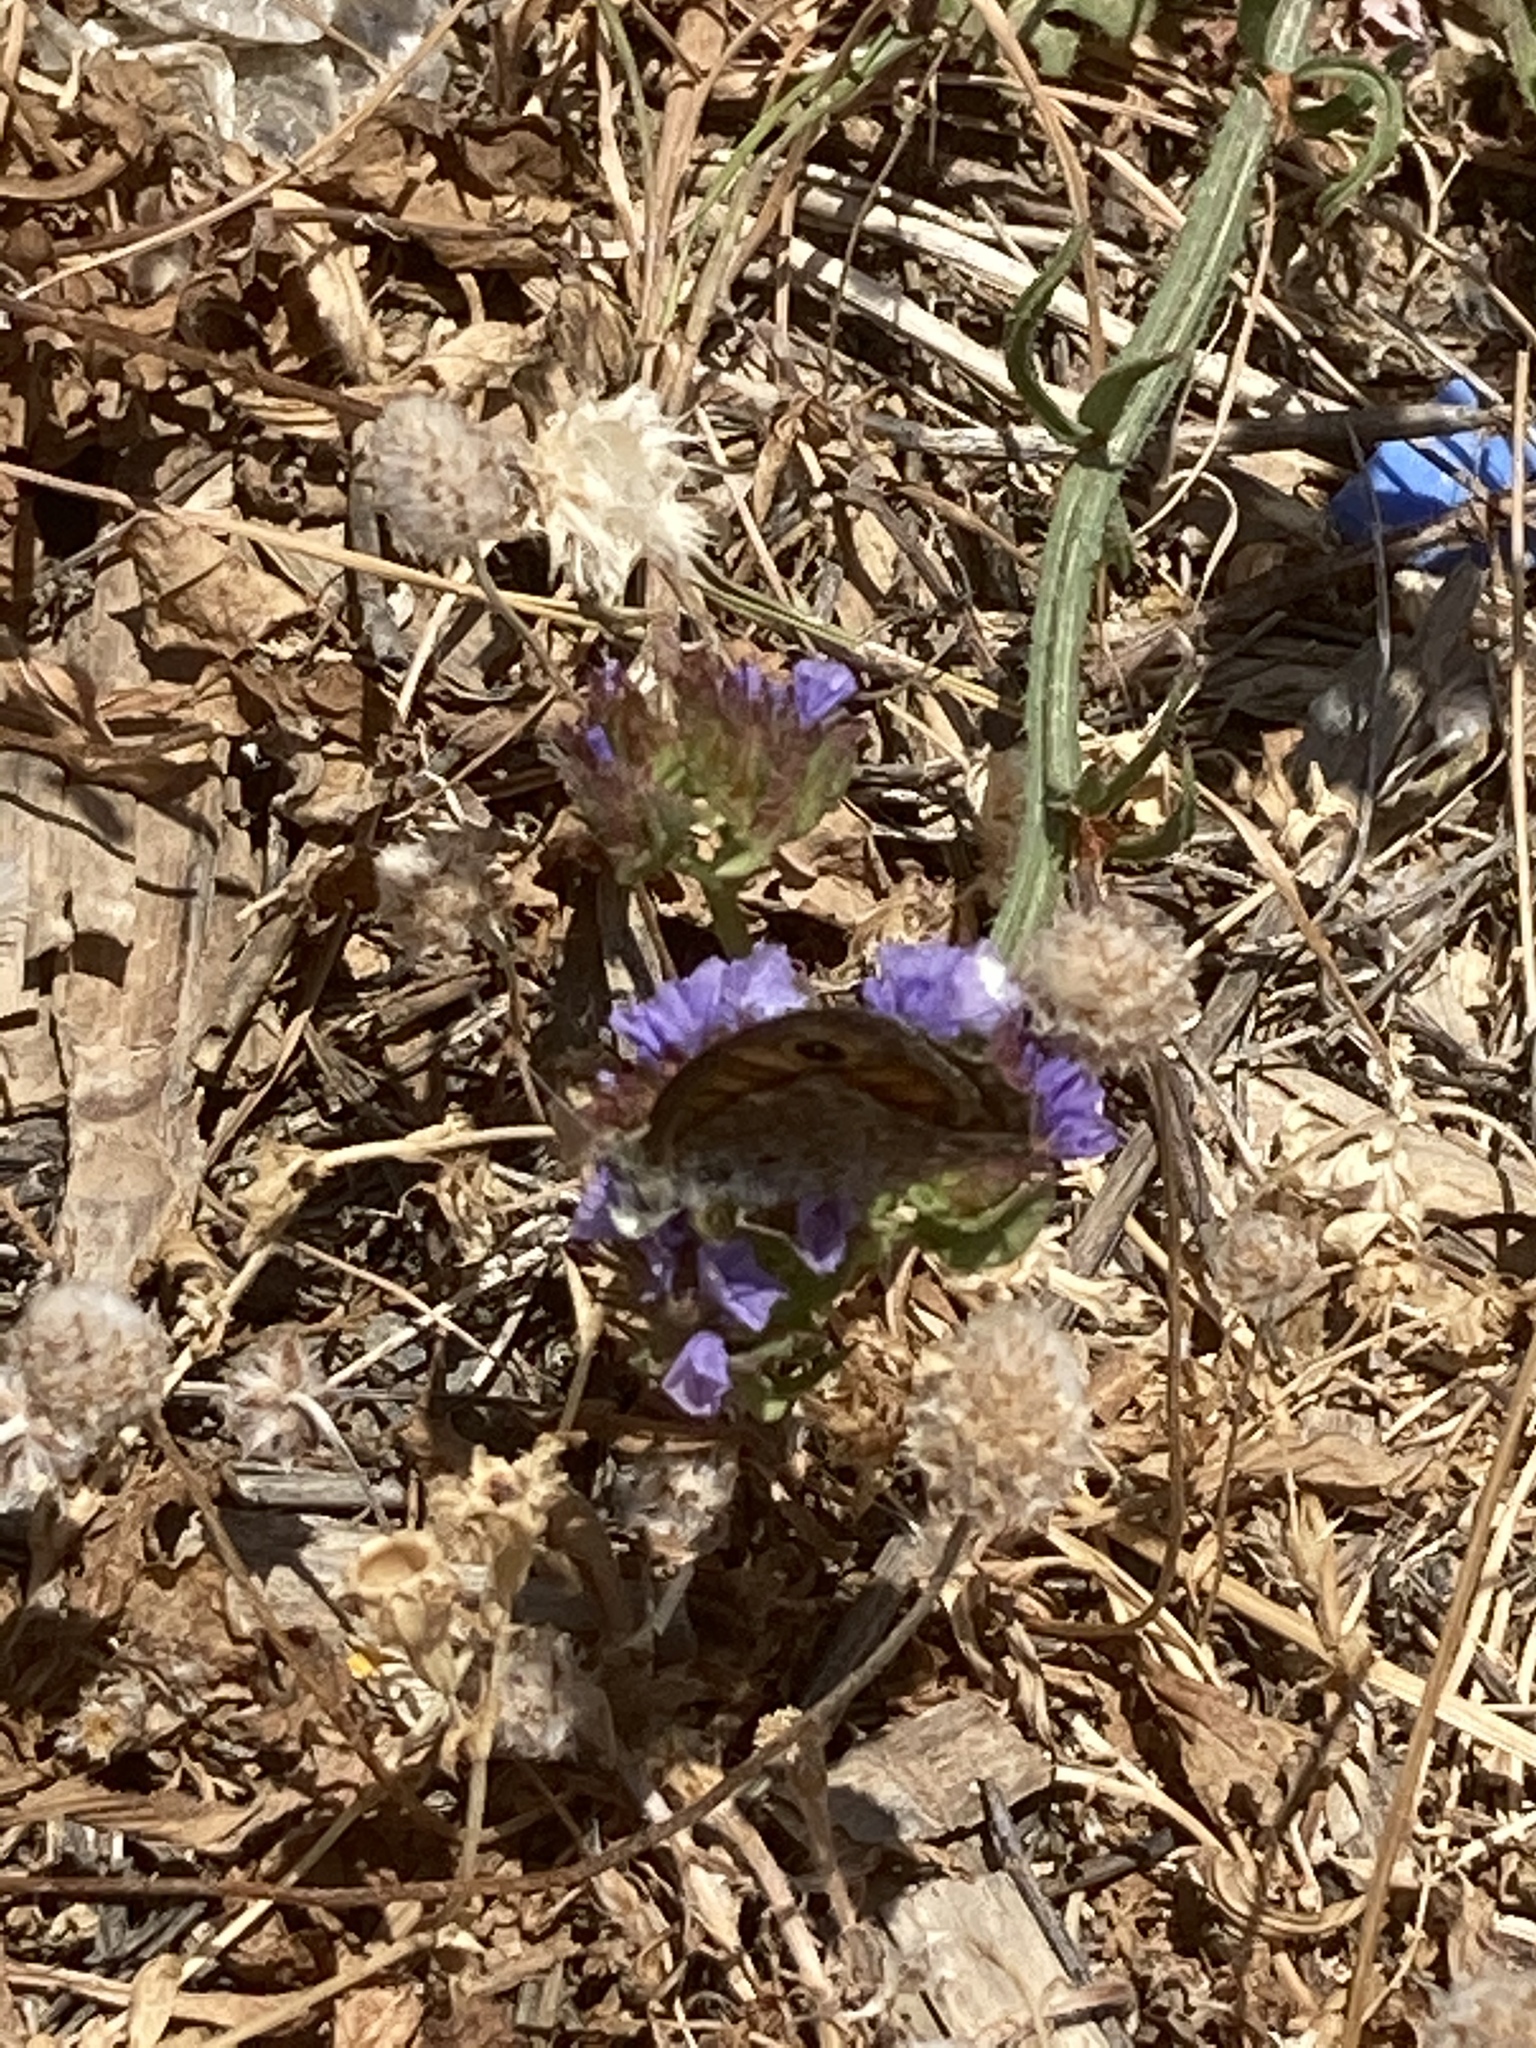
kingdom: Animalia
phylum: Arthropoda
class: Insecta
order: Lepidoptera
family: Nymphalidae
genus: Pararge
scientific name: Pararge Lasiommata megera
